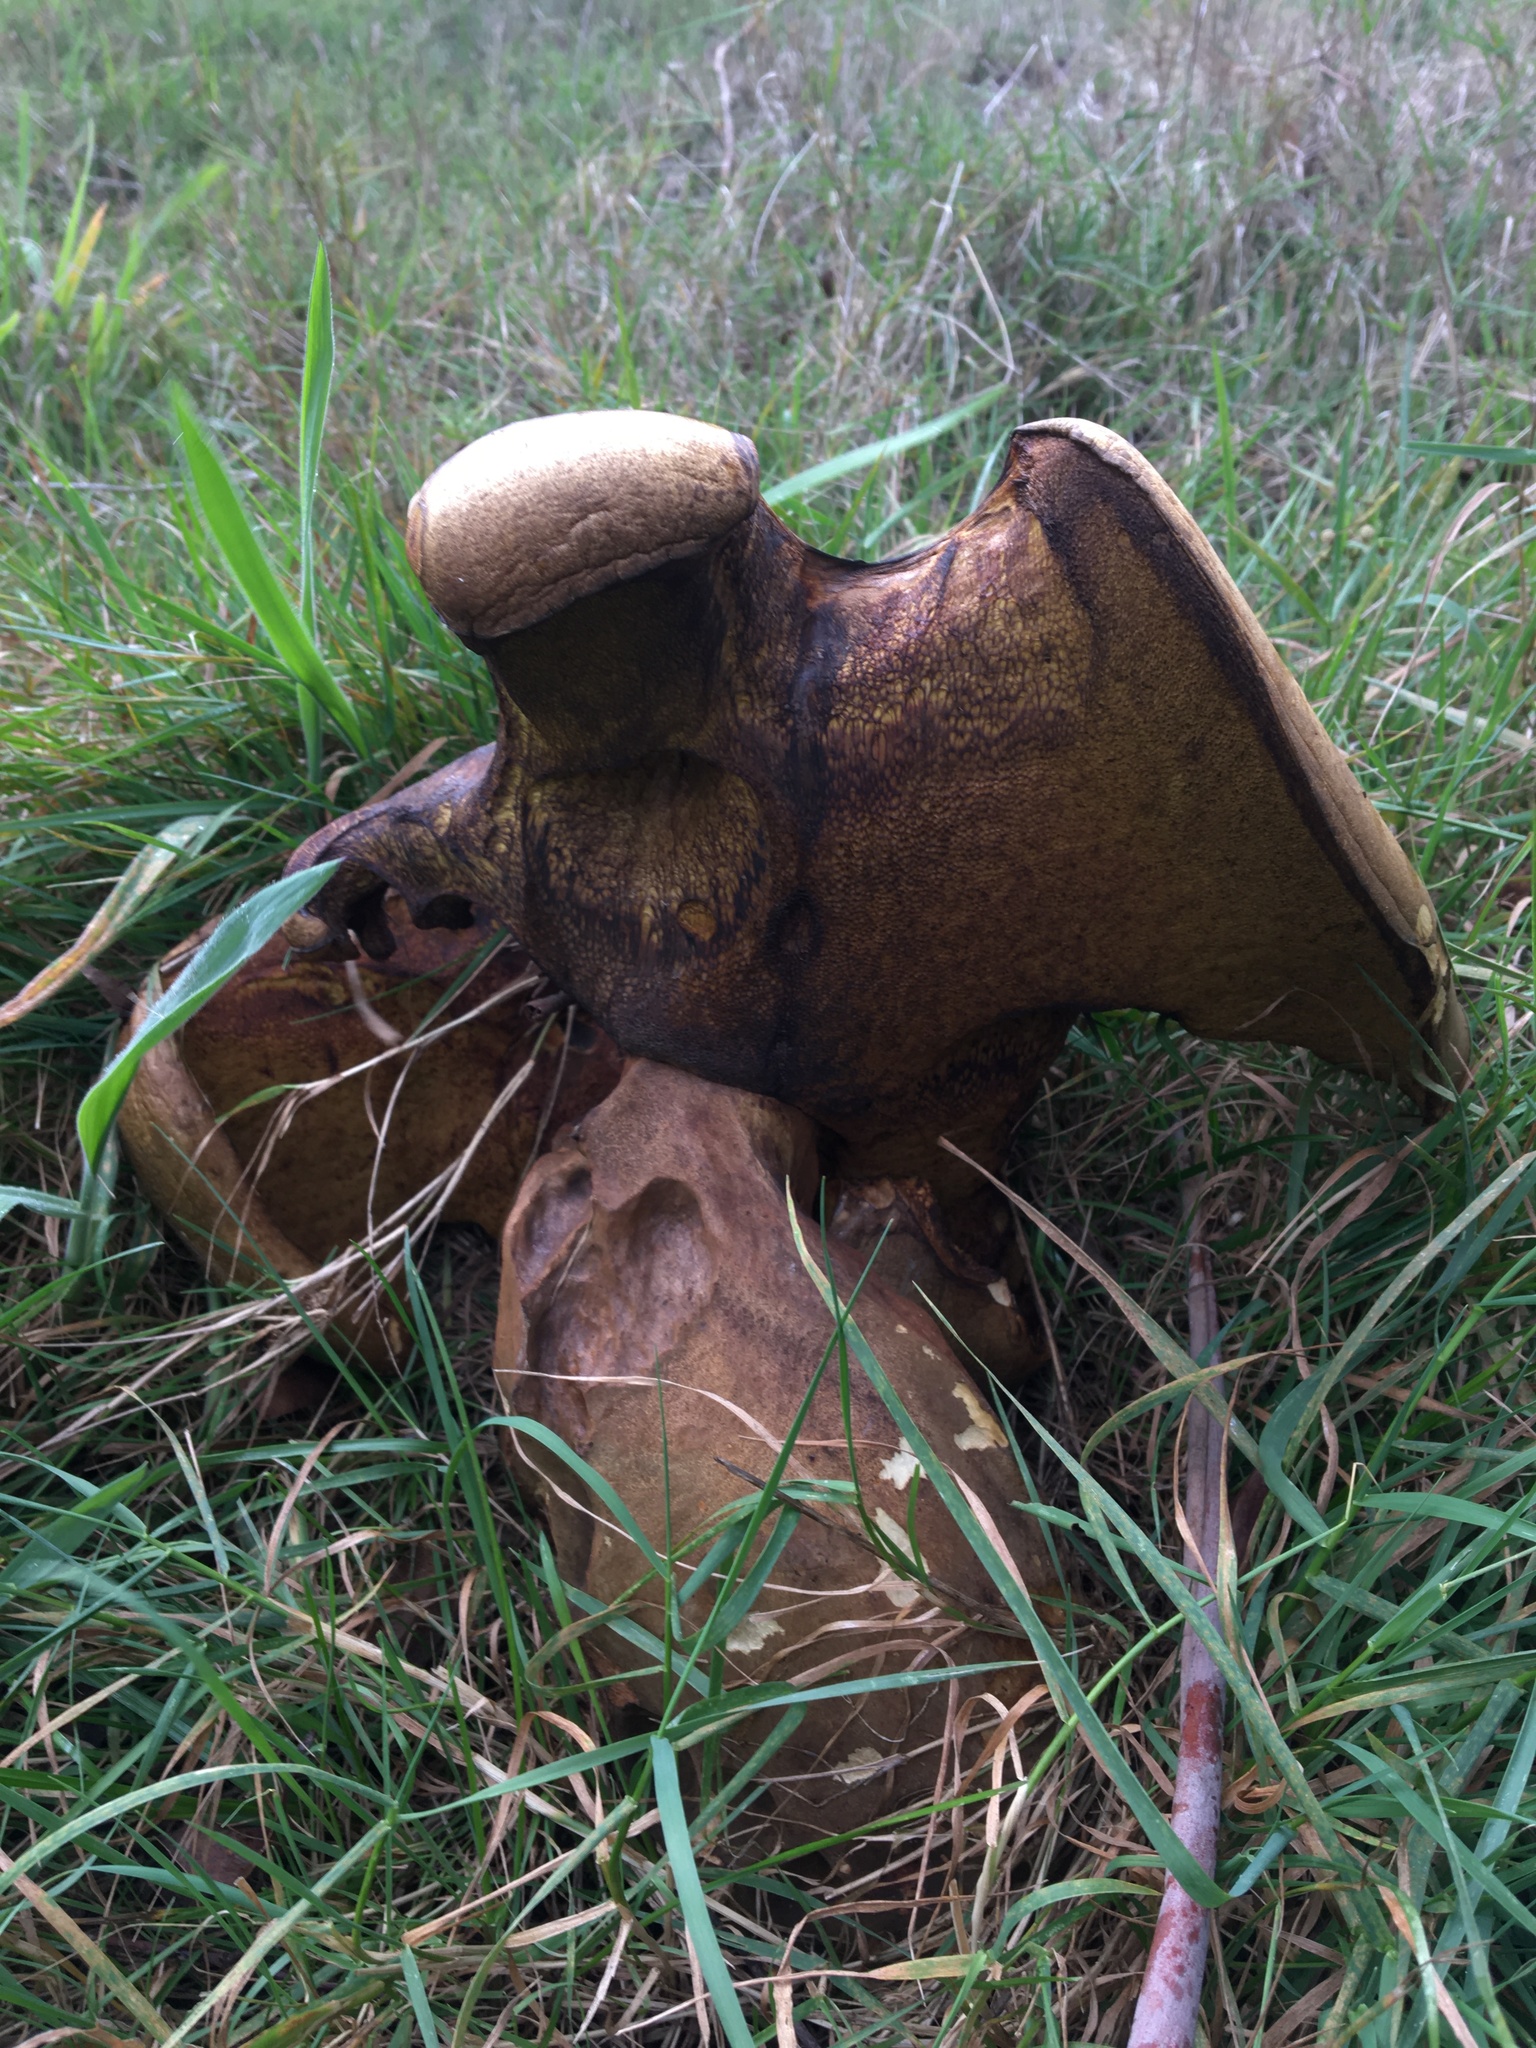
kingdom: Fungi
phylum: Basidiomycota
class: Agaricomycetes
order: Boletales
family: Boletinellaceae
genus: Phlebopus
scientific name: Phlebopus marginatus
